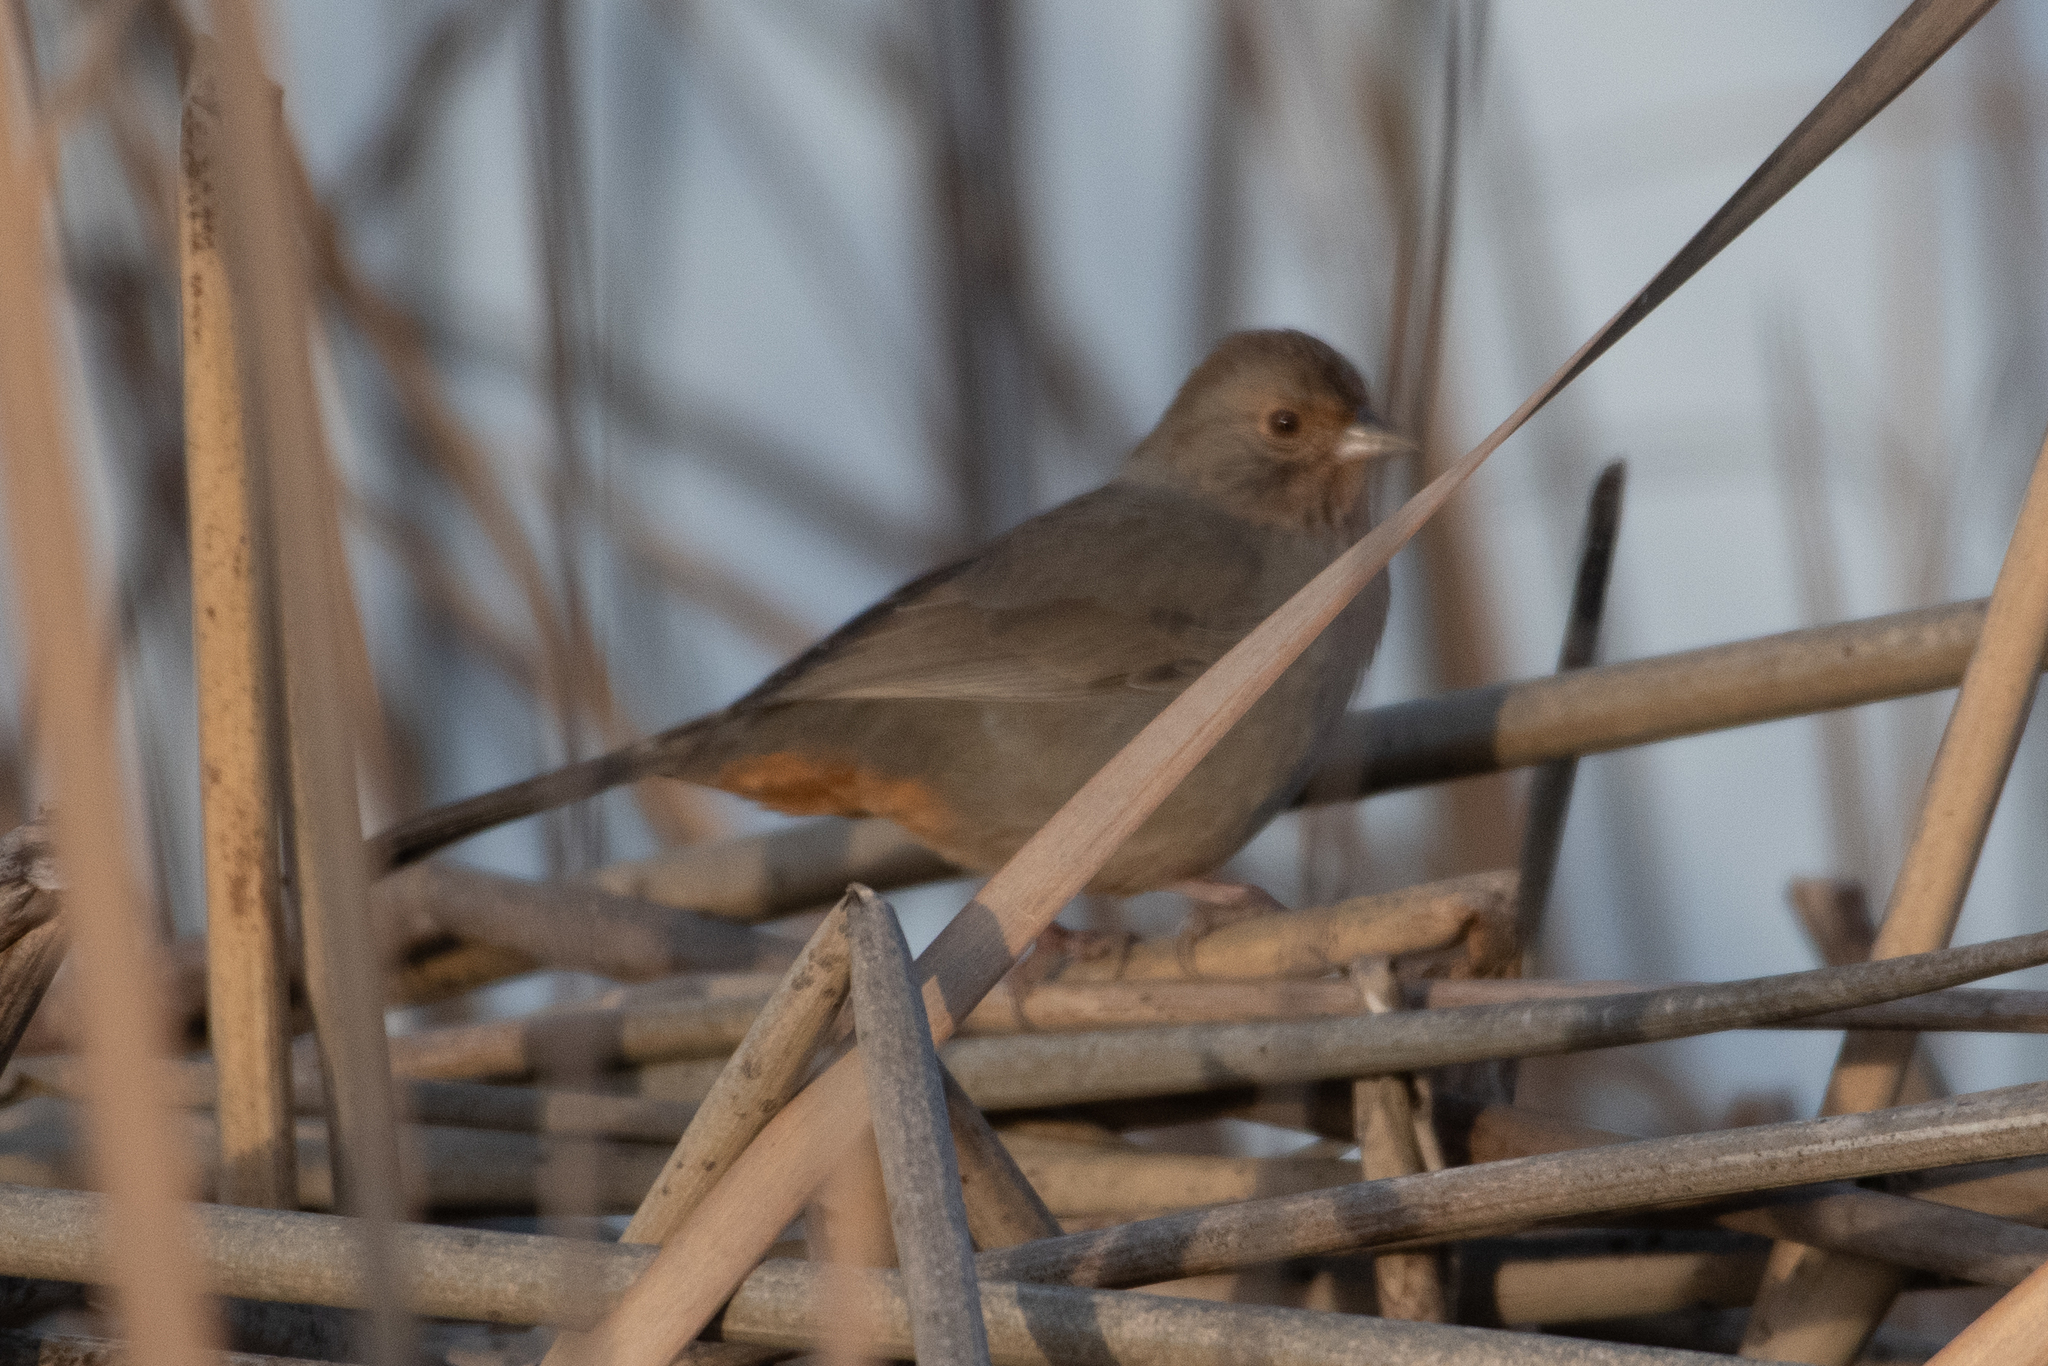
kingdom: Animalia
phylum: Chordata
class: Aves
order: Passeriformes
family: Passerellidae
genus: Melozone
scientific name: Melozone crissalis
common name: California towhee
